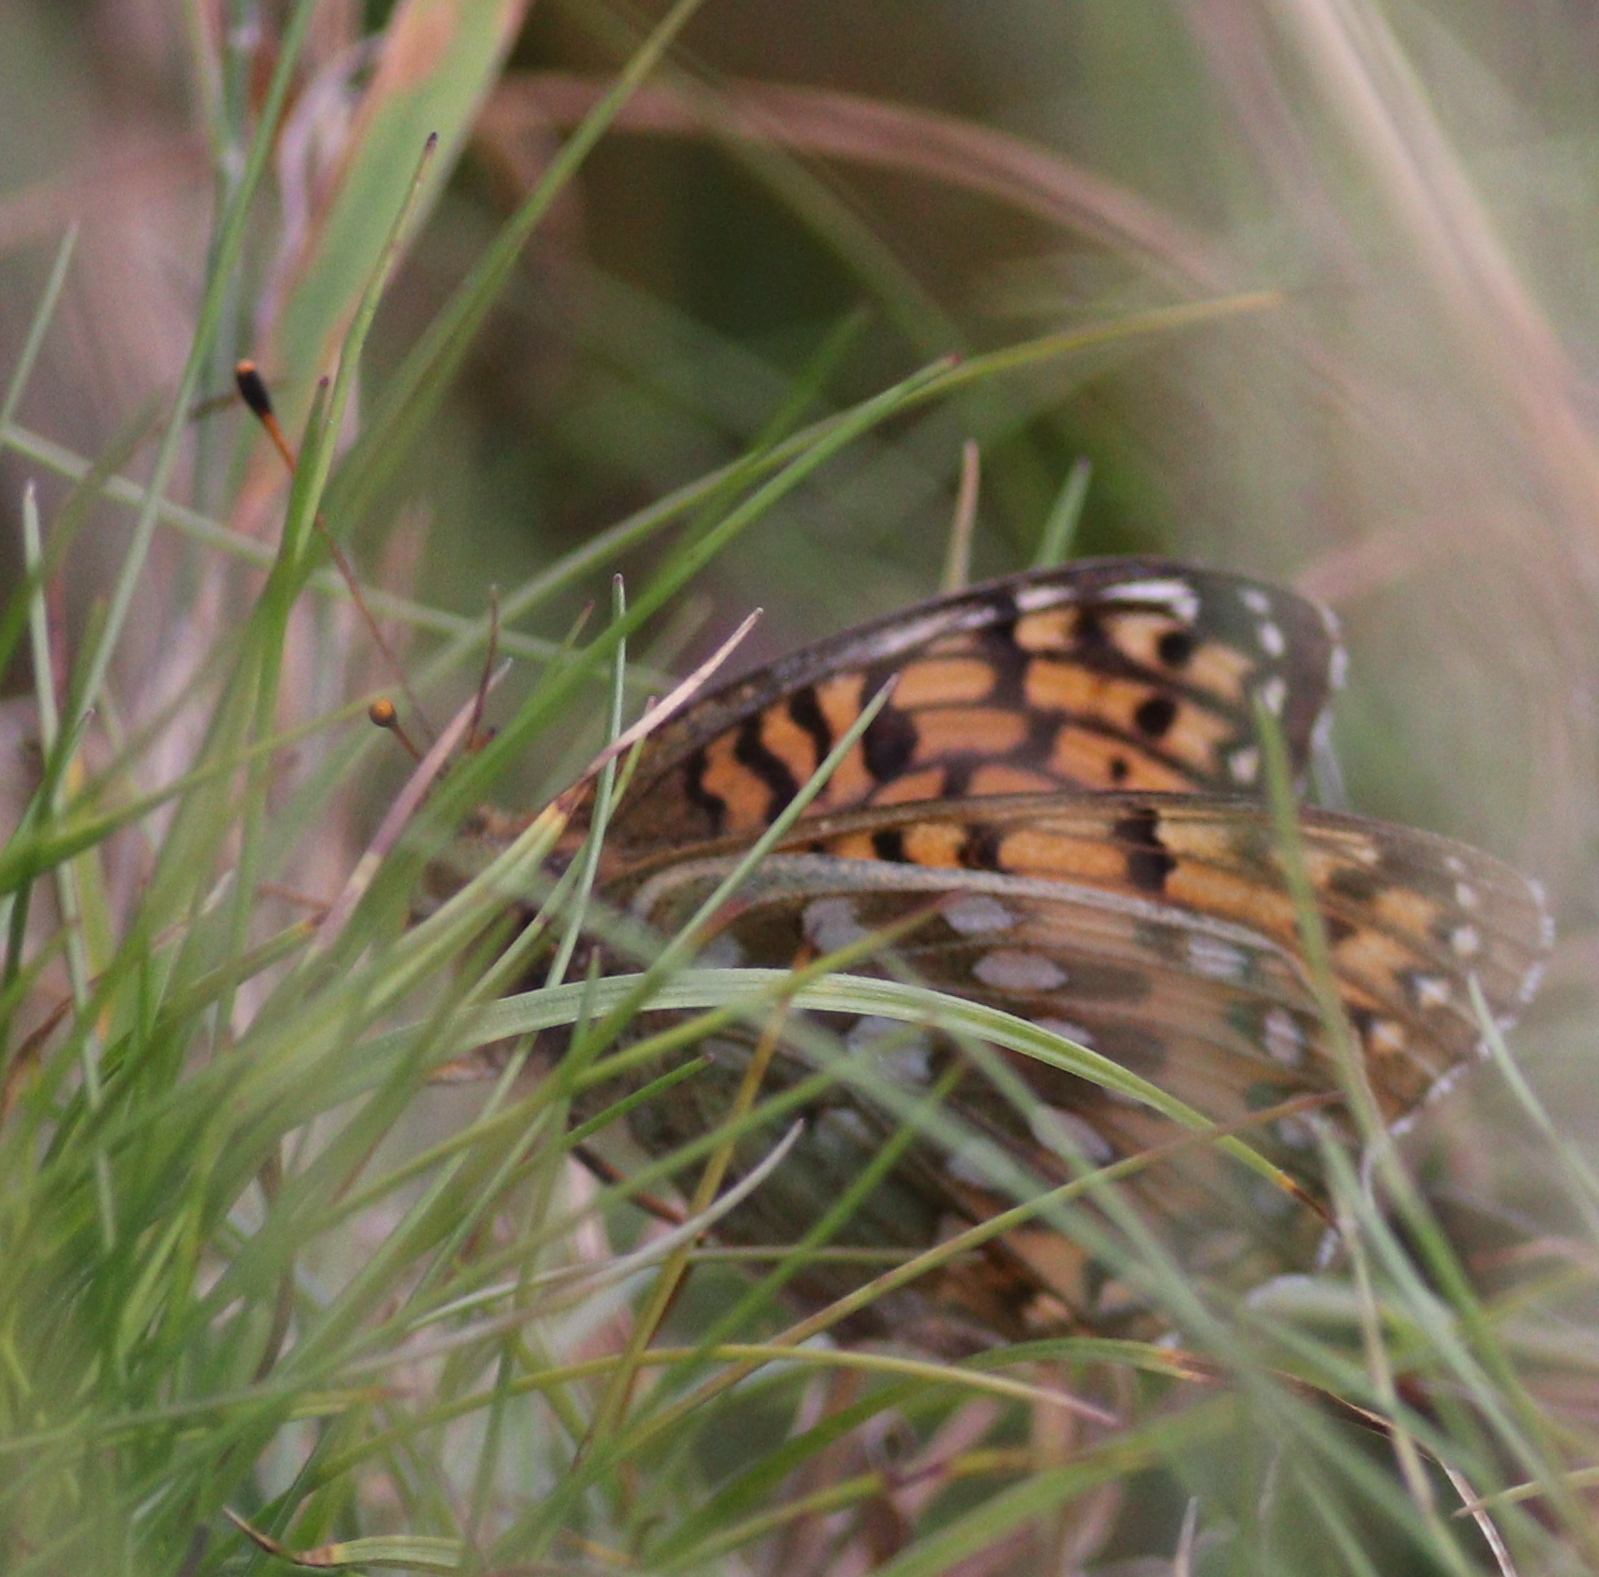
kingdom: Animalia
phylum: Arthropoda
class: Insecta
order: Lepidoptera
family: Nymphalidae
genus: Speyeria
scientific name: Speyeria aglaja
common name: Dark green fritillary
